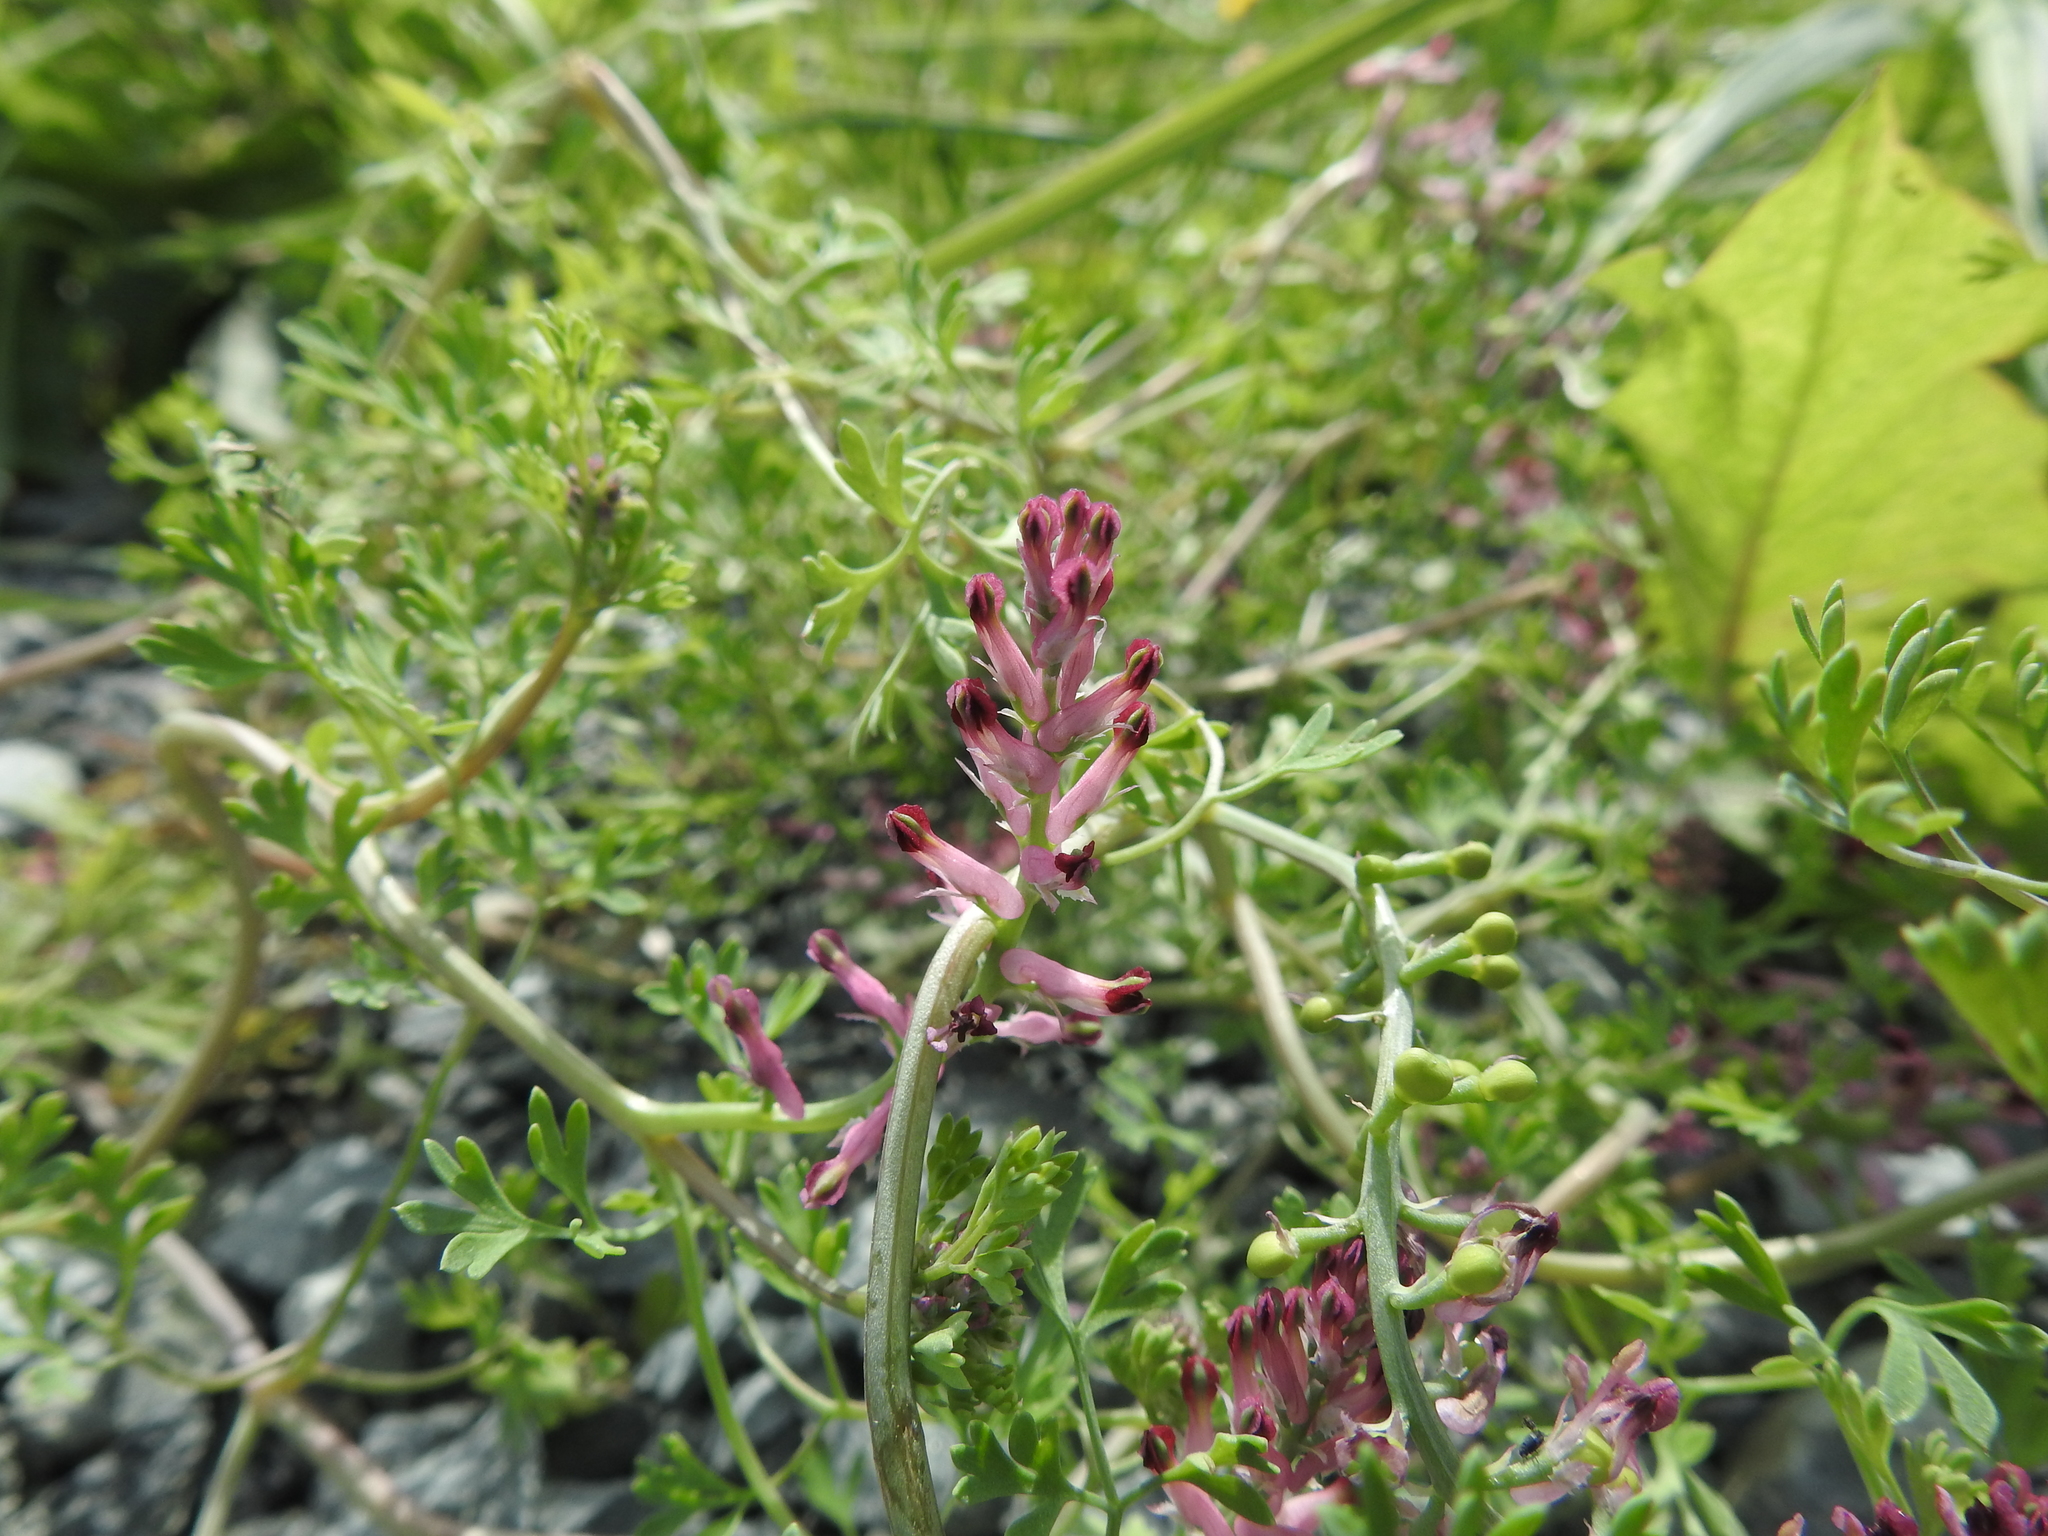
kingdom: Plantae
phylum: Tracheophyta
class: Magnoliopsida
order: Ranunculales
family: Papaveraceae
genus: Fumaria
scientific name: Fumaria officinalis
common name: Common fumitory
